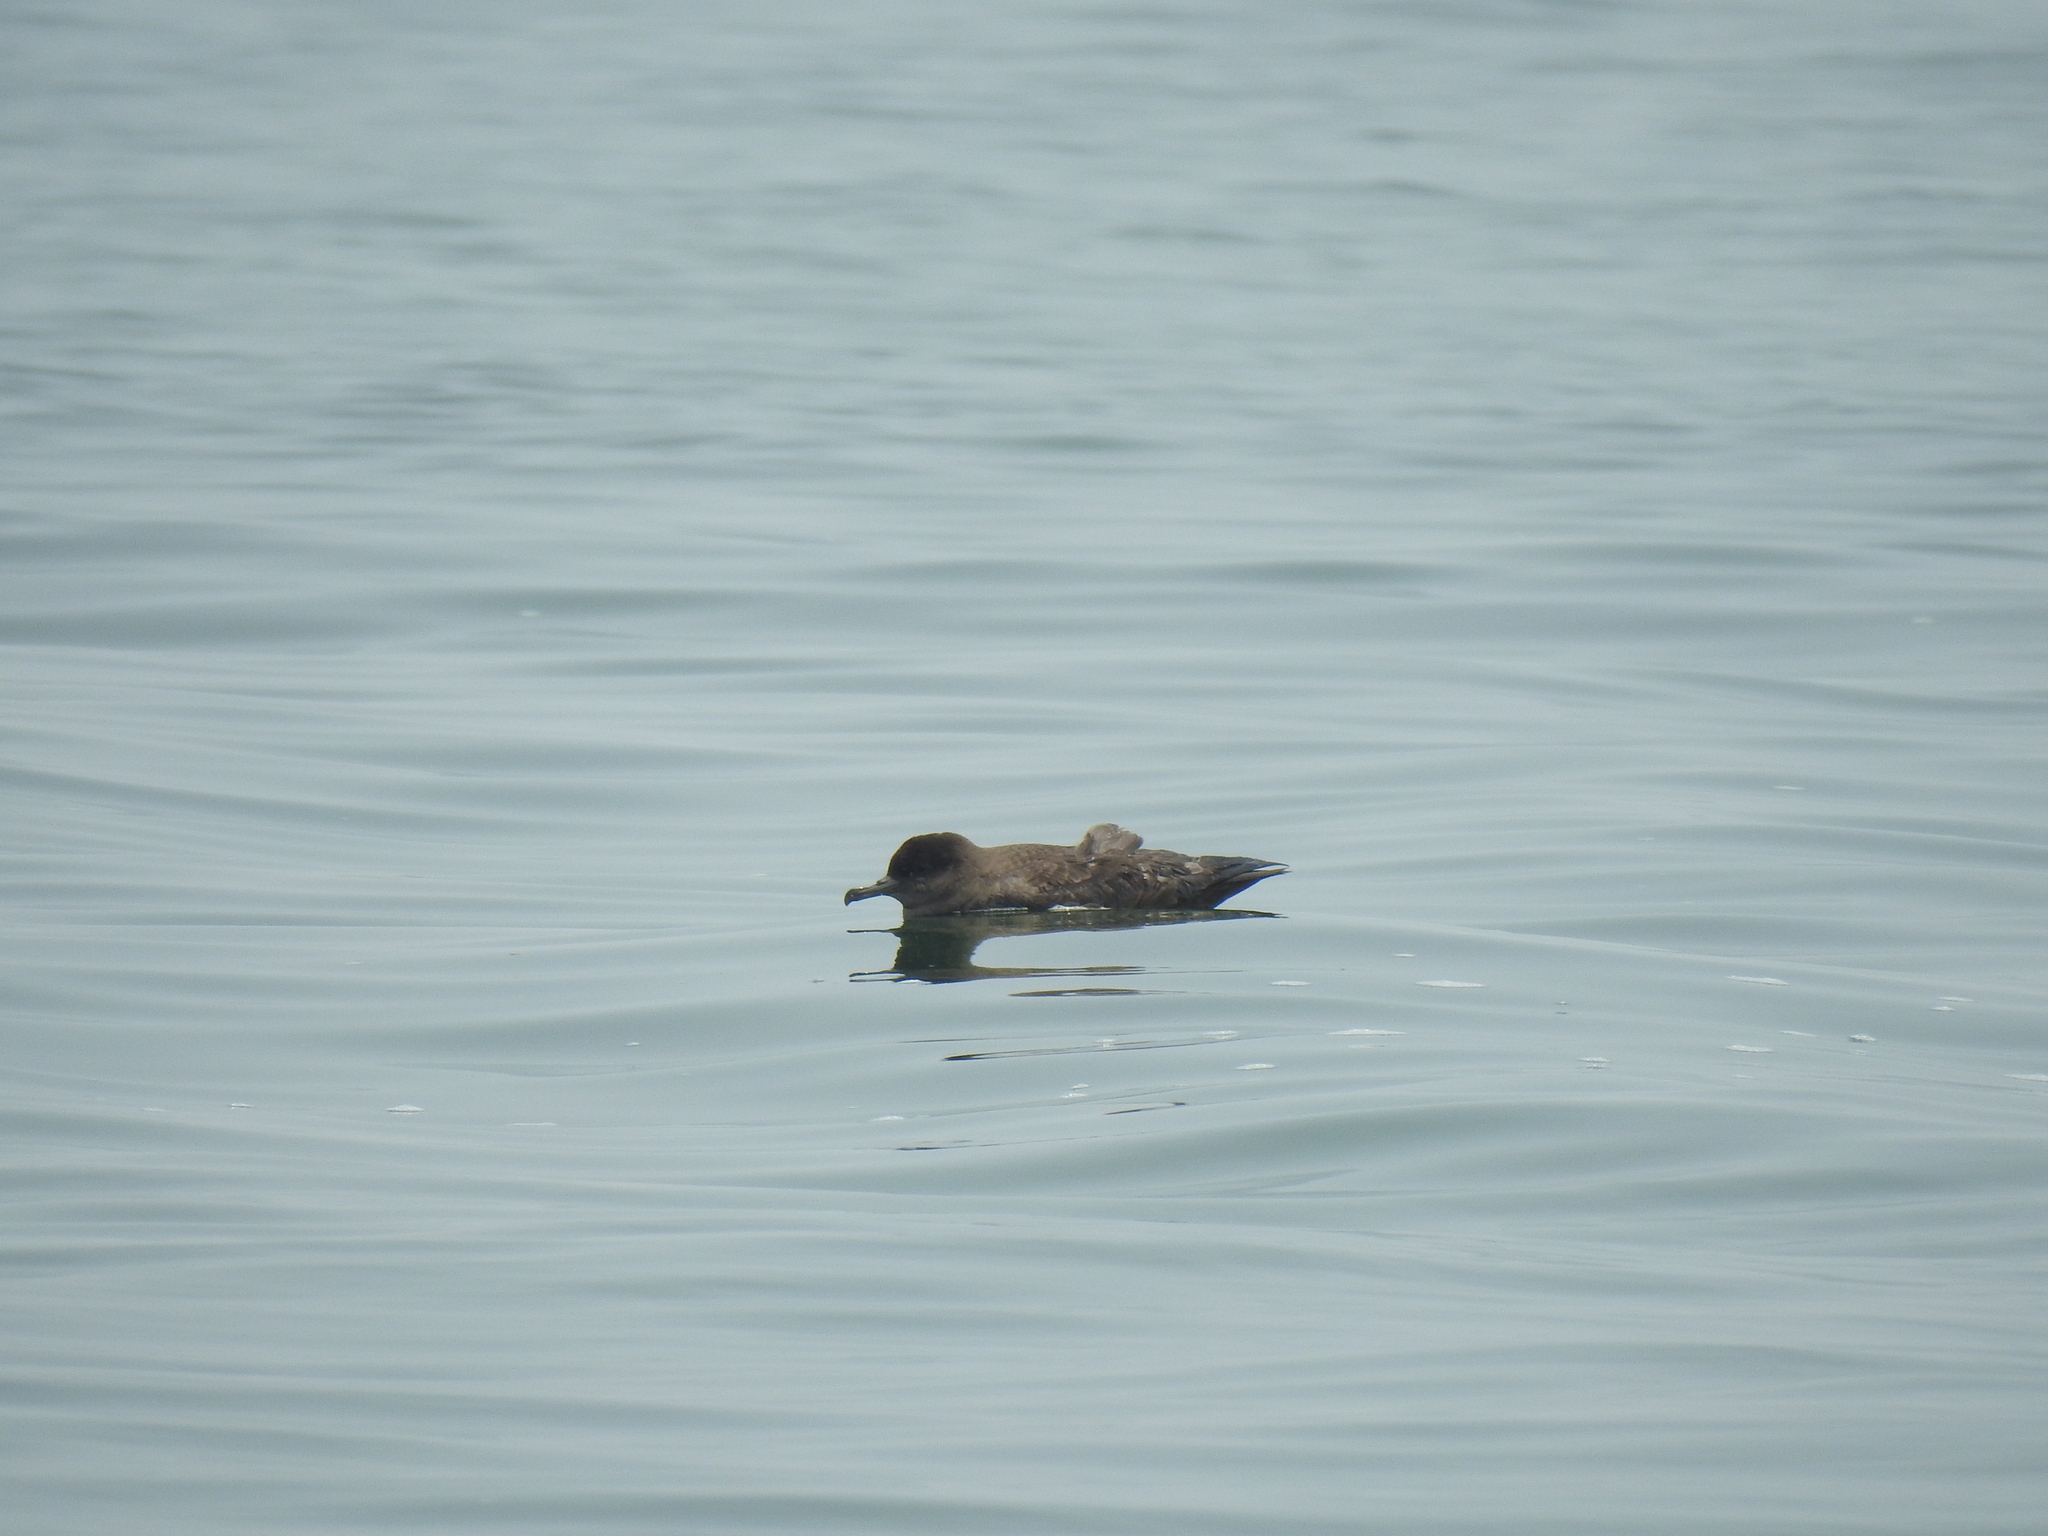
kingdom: Animalia
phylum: Chordata
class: Aves
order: Procellariiformes
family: Procellariidae
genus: Puffinus
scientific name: Puffinus griseus
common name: Sooty shearwater
